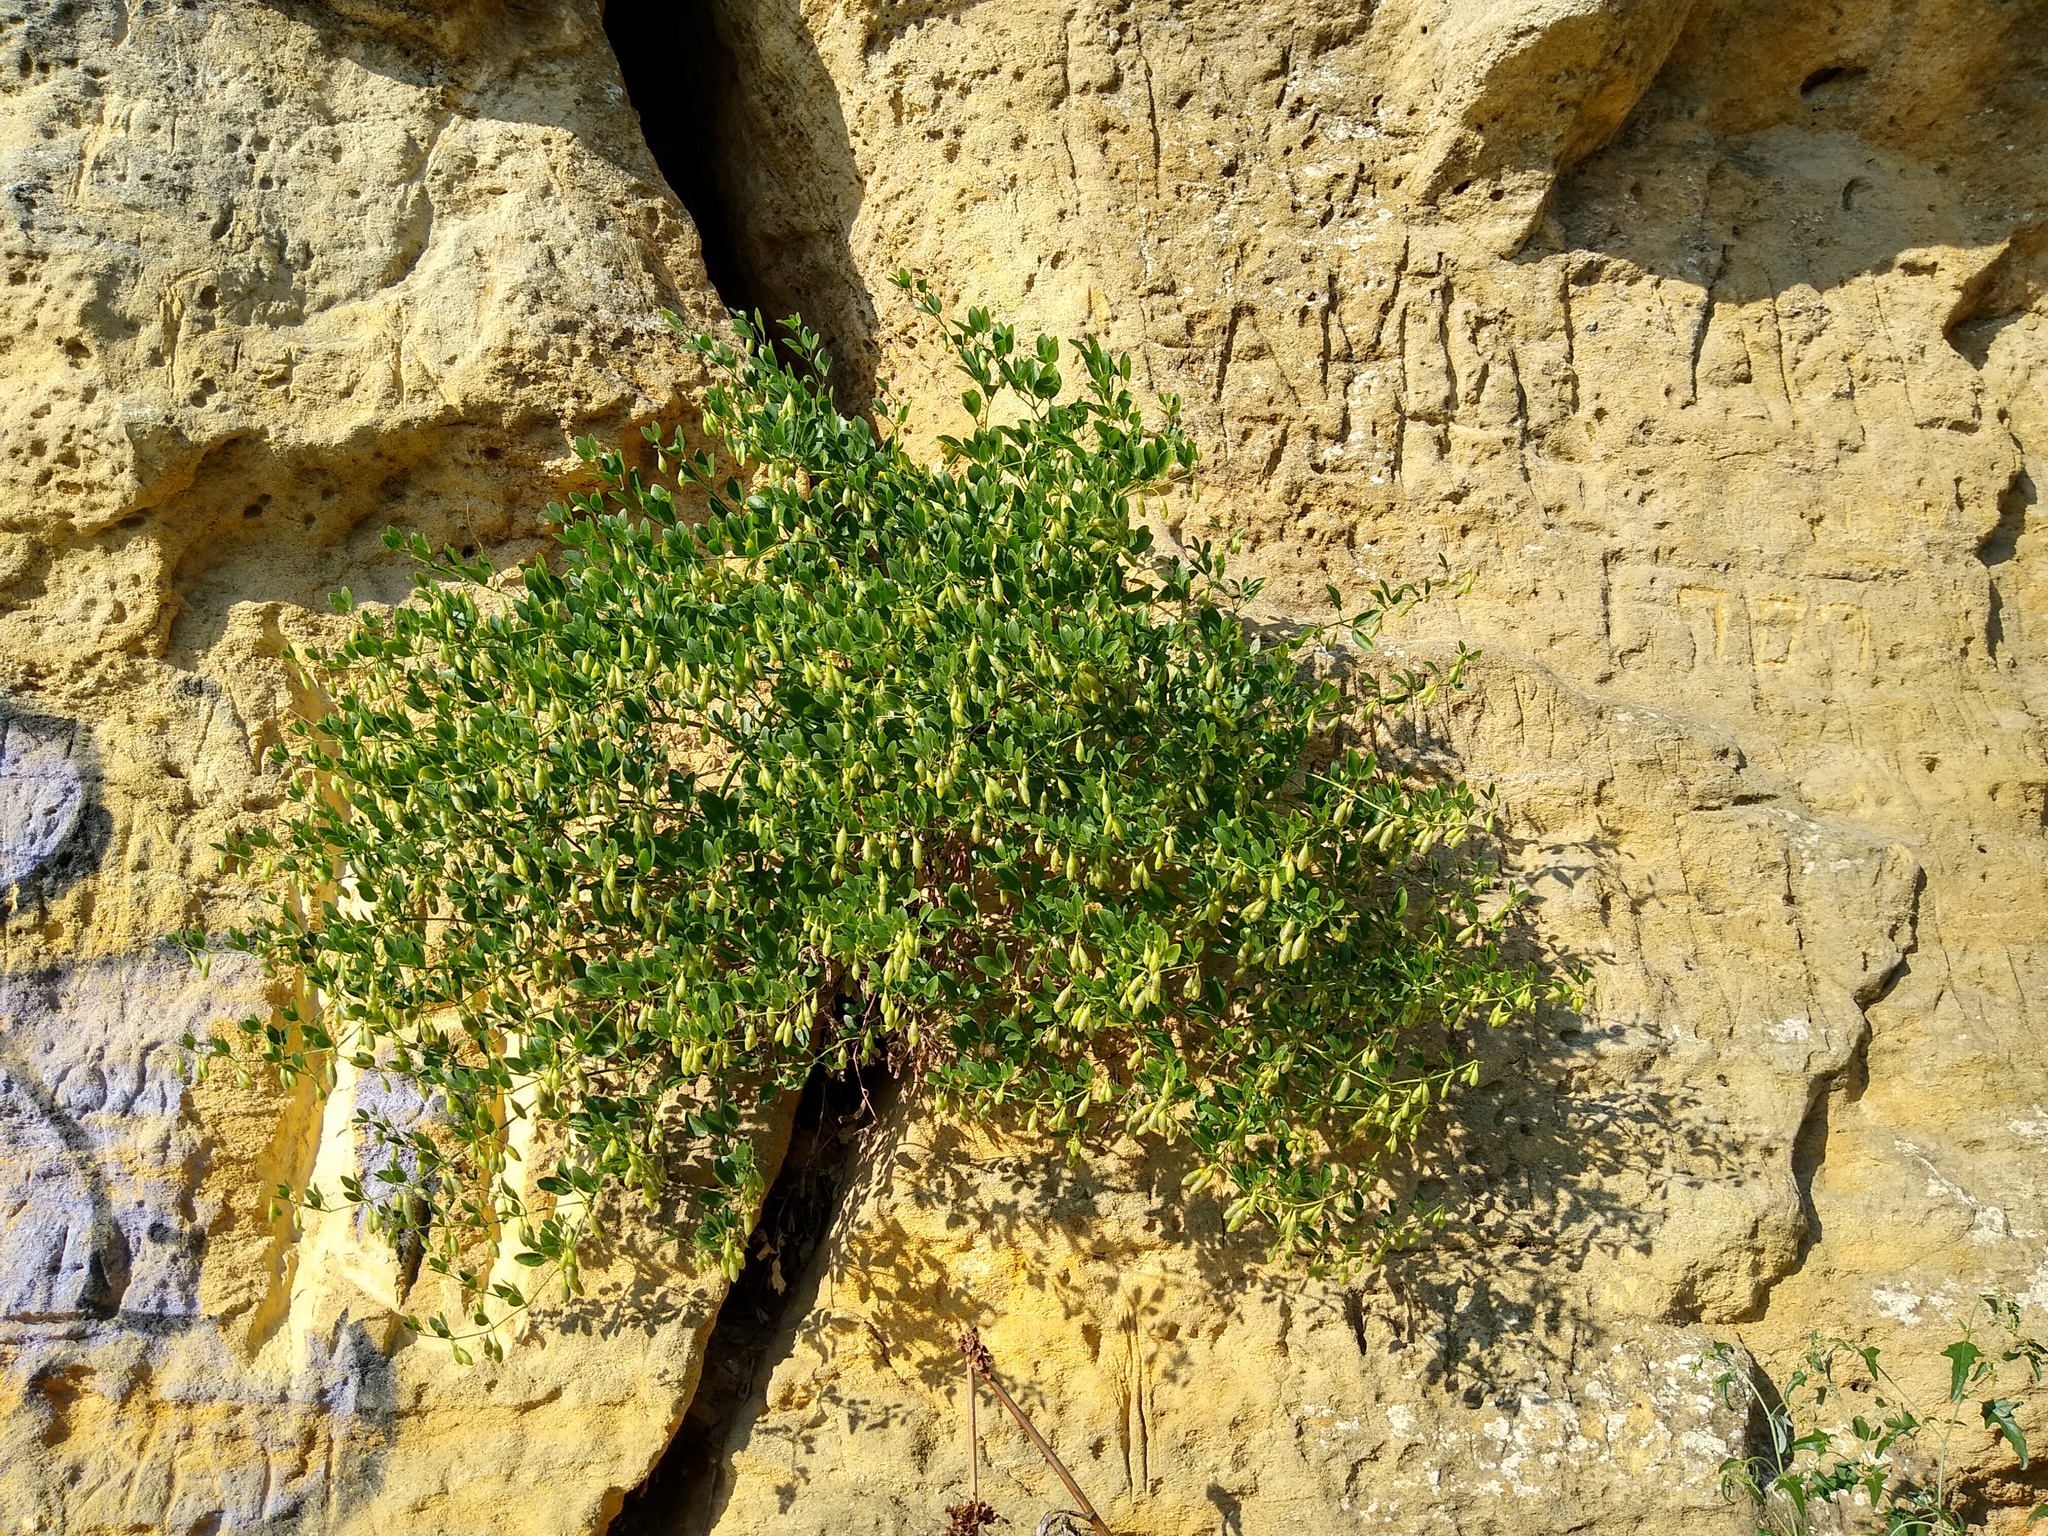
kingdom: Plantae
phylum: Tracheophyta
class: Magnoliopsida
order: Zygophyllales
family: Zygophyllaceae
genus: Zygophyllum
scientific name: Zygophyllum fabago
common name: Syrian beancaper
